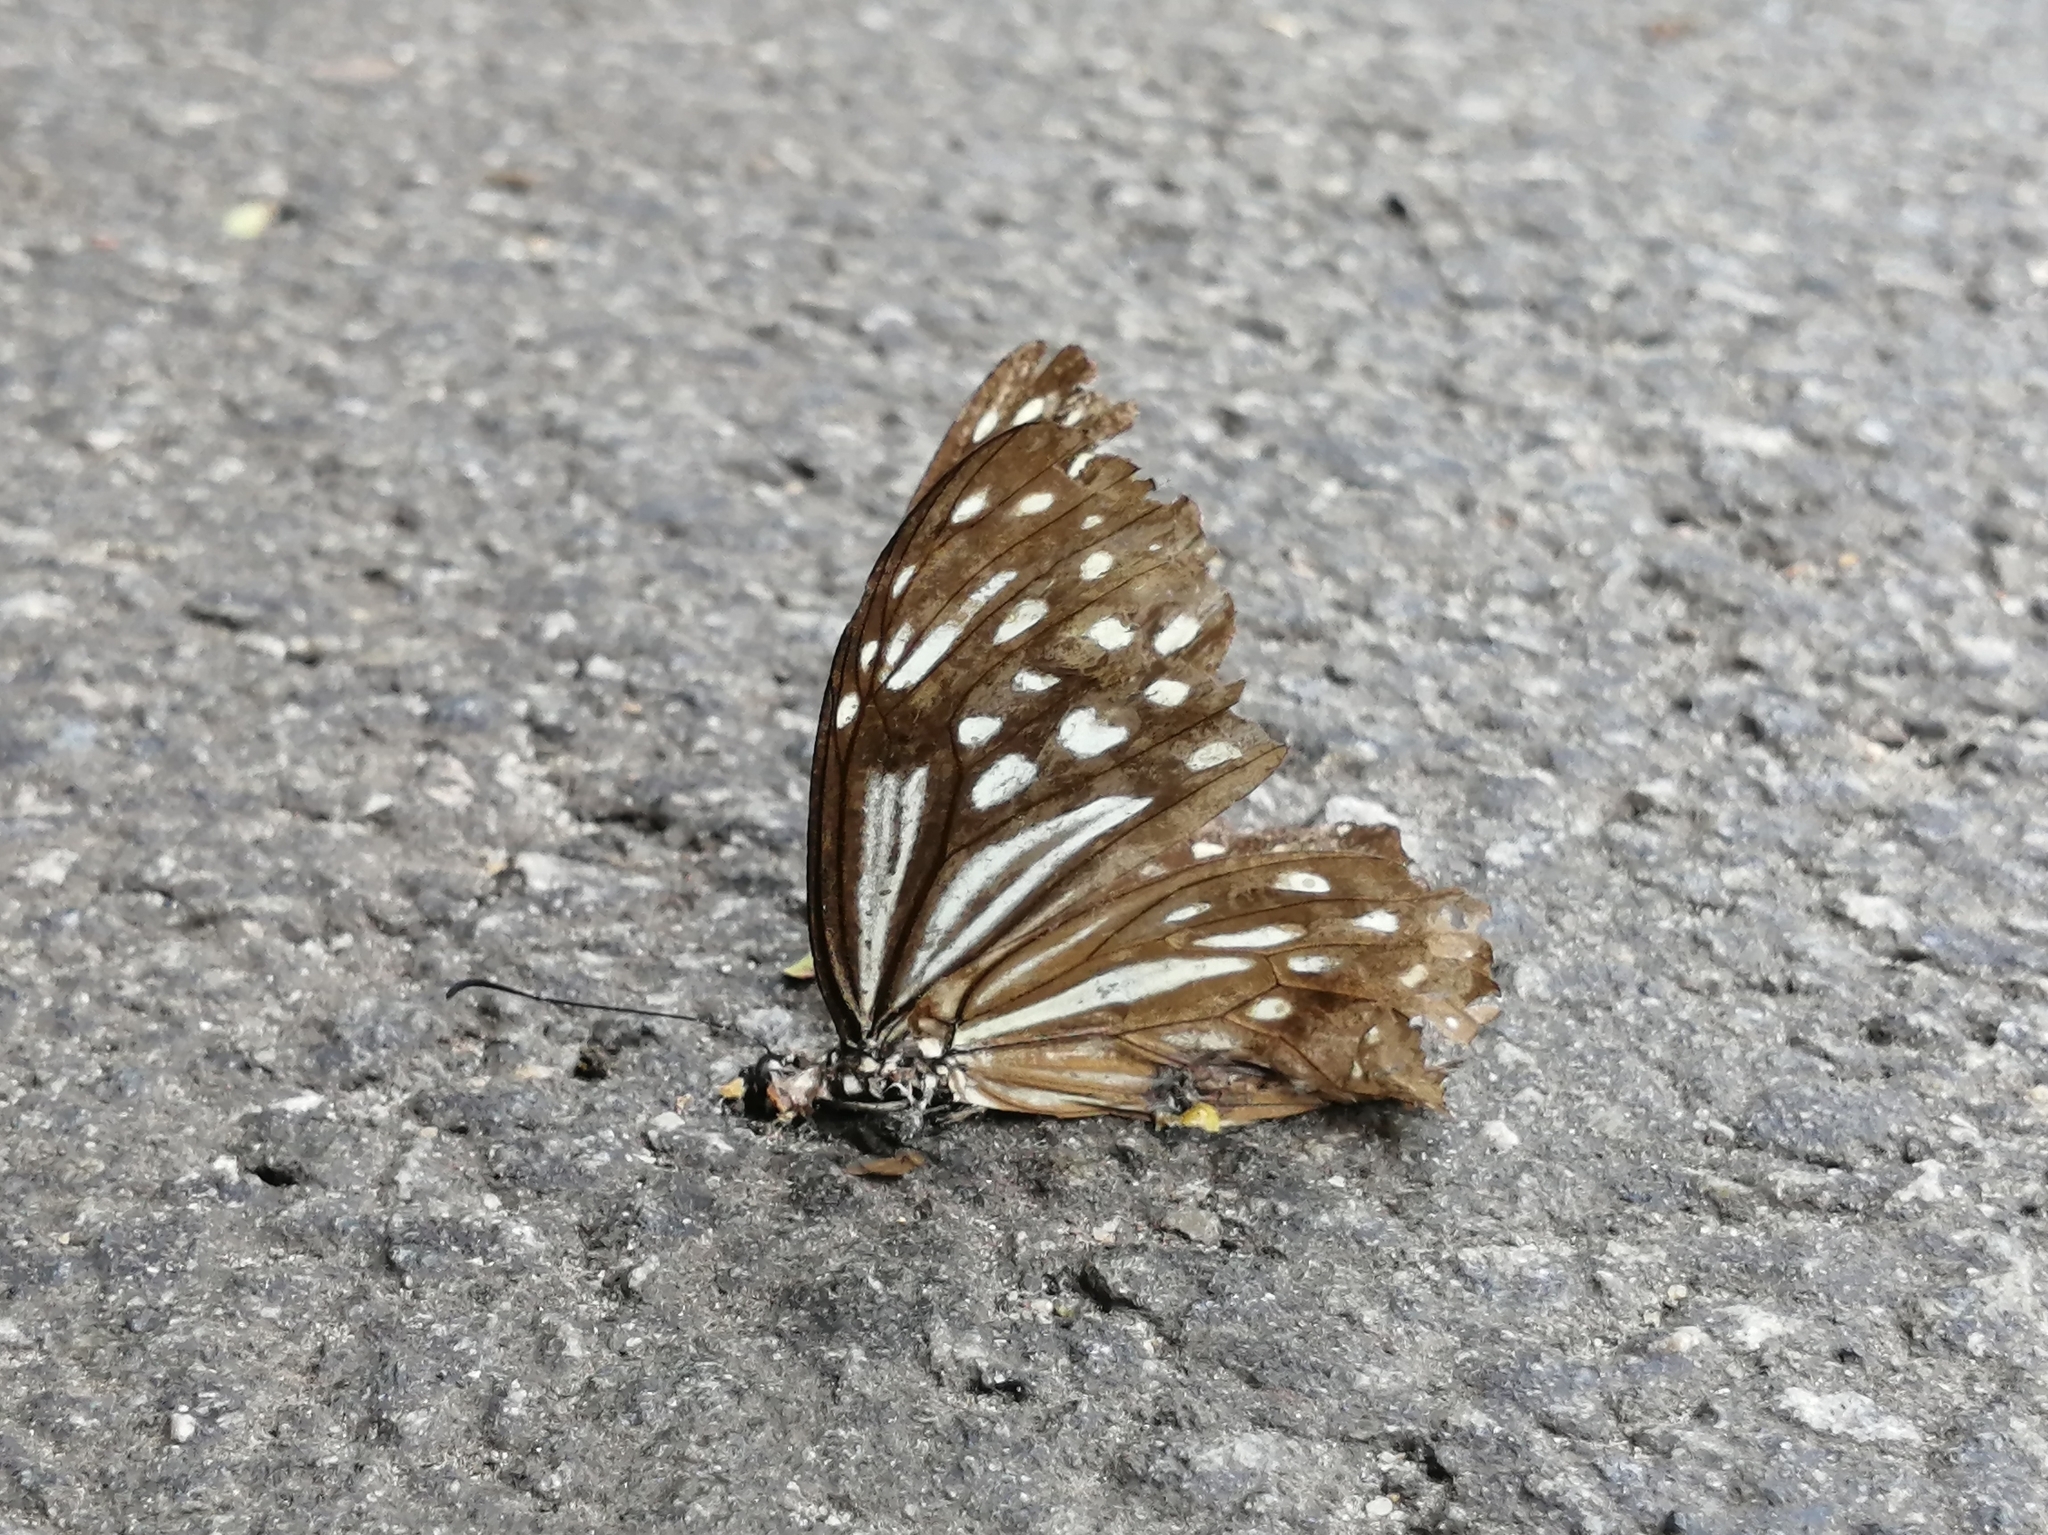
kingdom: Animalia
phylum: Arthropoda
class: Insecta
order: Lepidoptera
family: Nymphalidae
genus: Parantica
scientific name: Parantica nilgiriensis
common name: Nilgiri tiger
